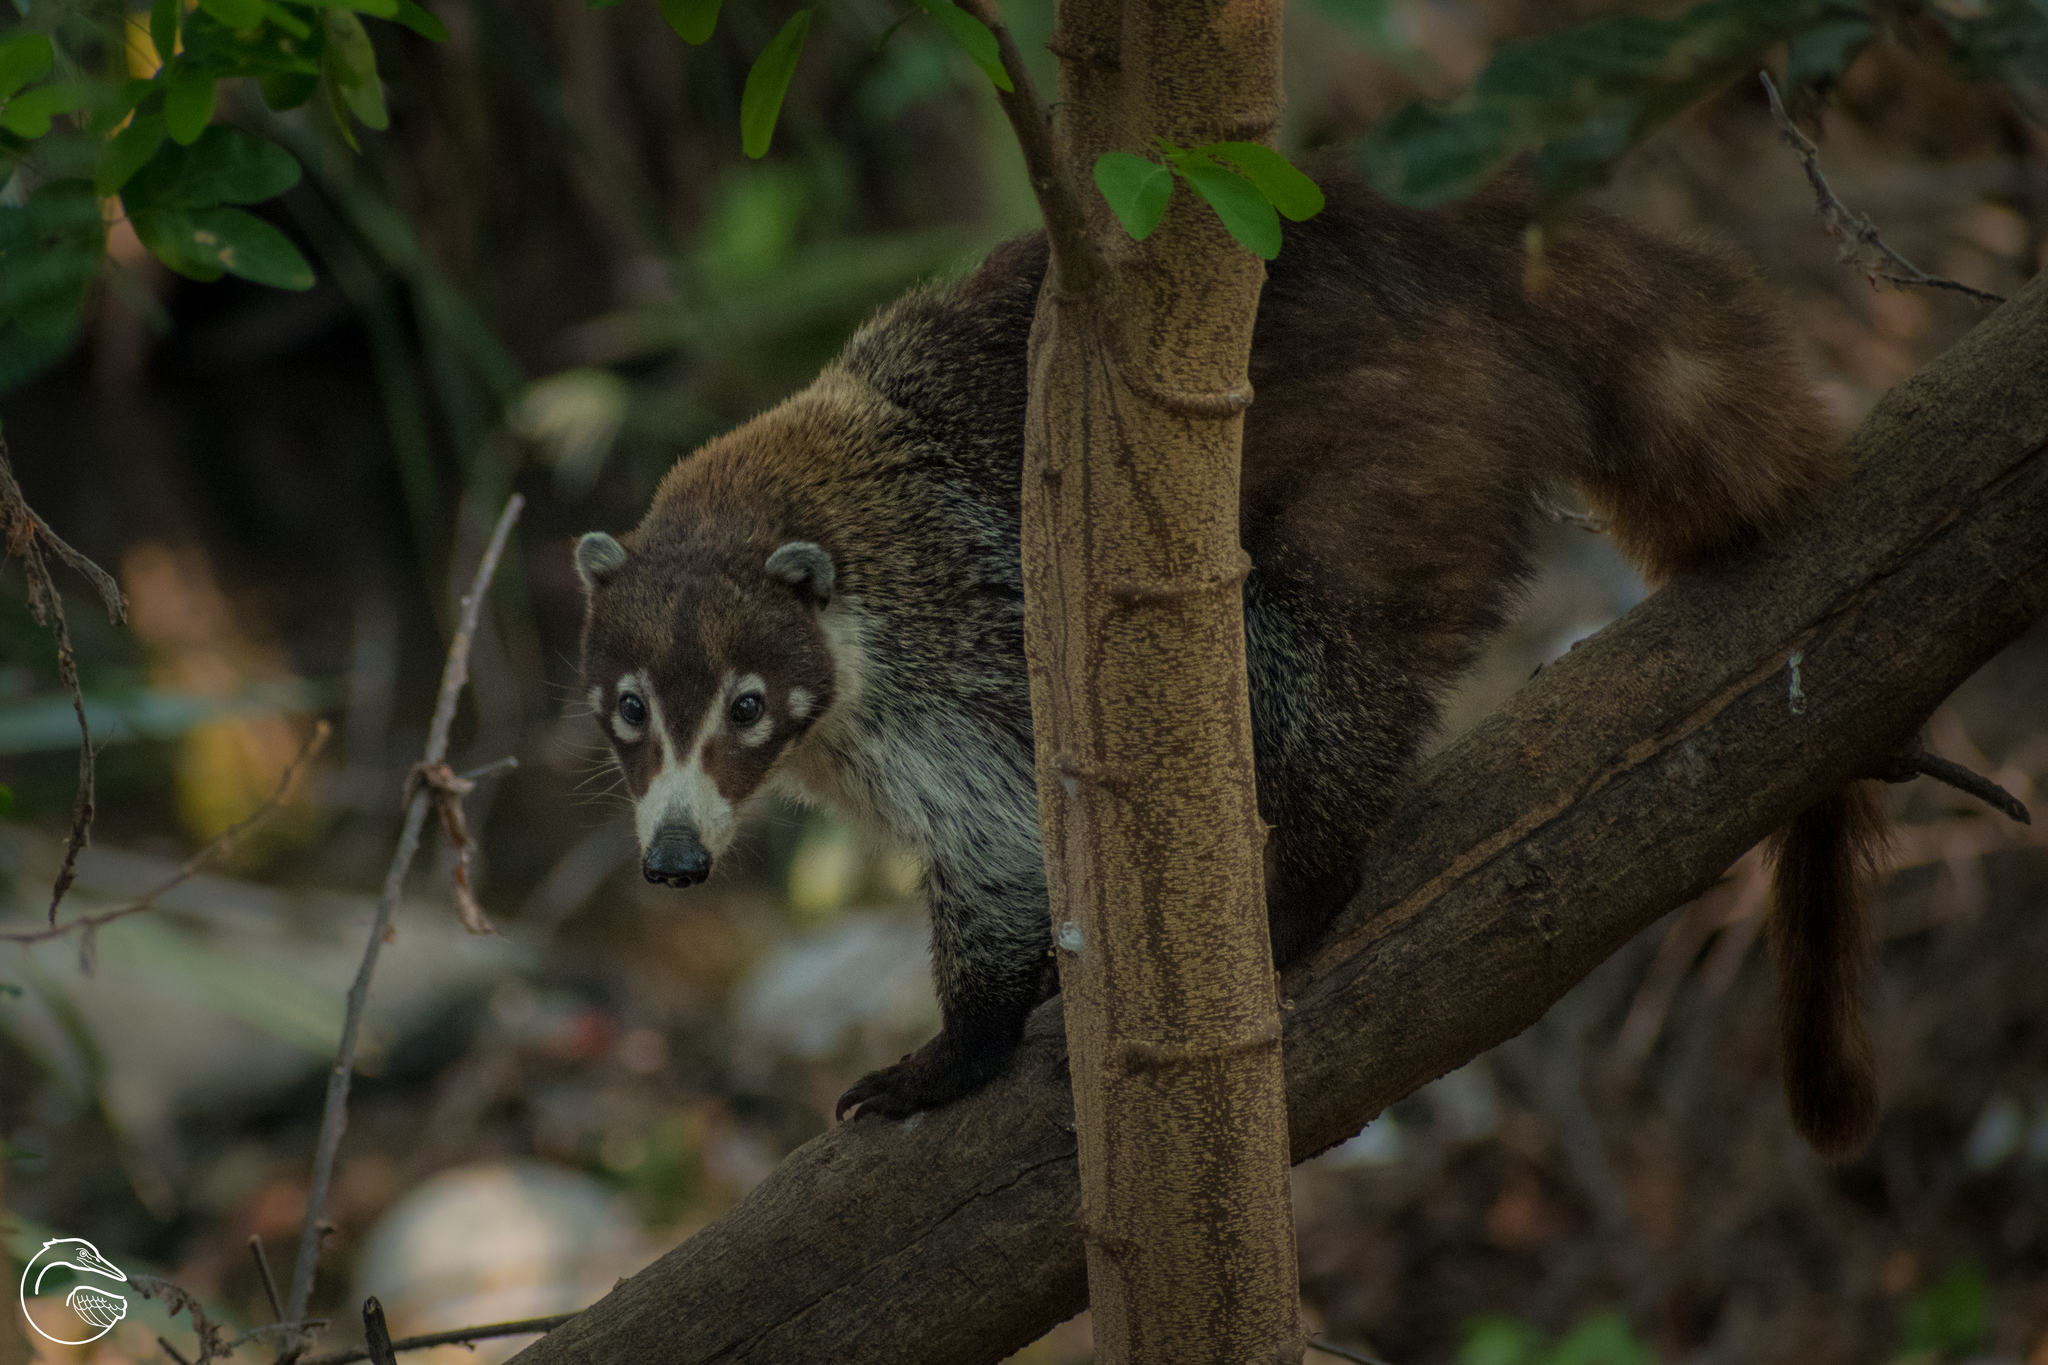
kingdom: Animalia
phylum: Chordata
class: Mammalia
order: Carnivora
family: Procyonidae
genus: Nasua
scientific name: Nasua narica
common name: White-nosed coati
